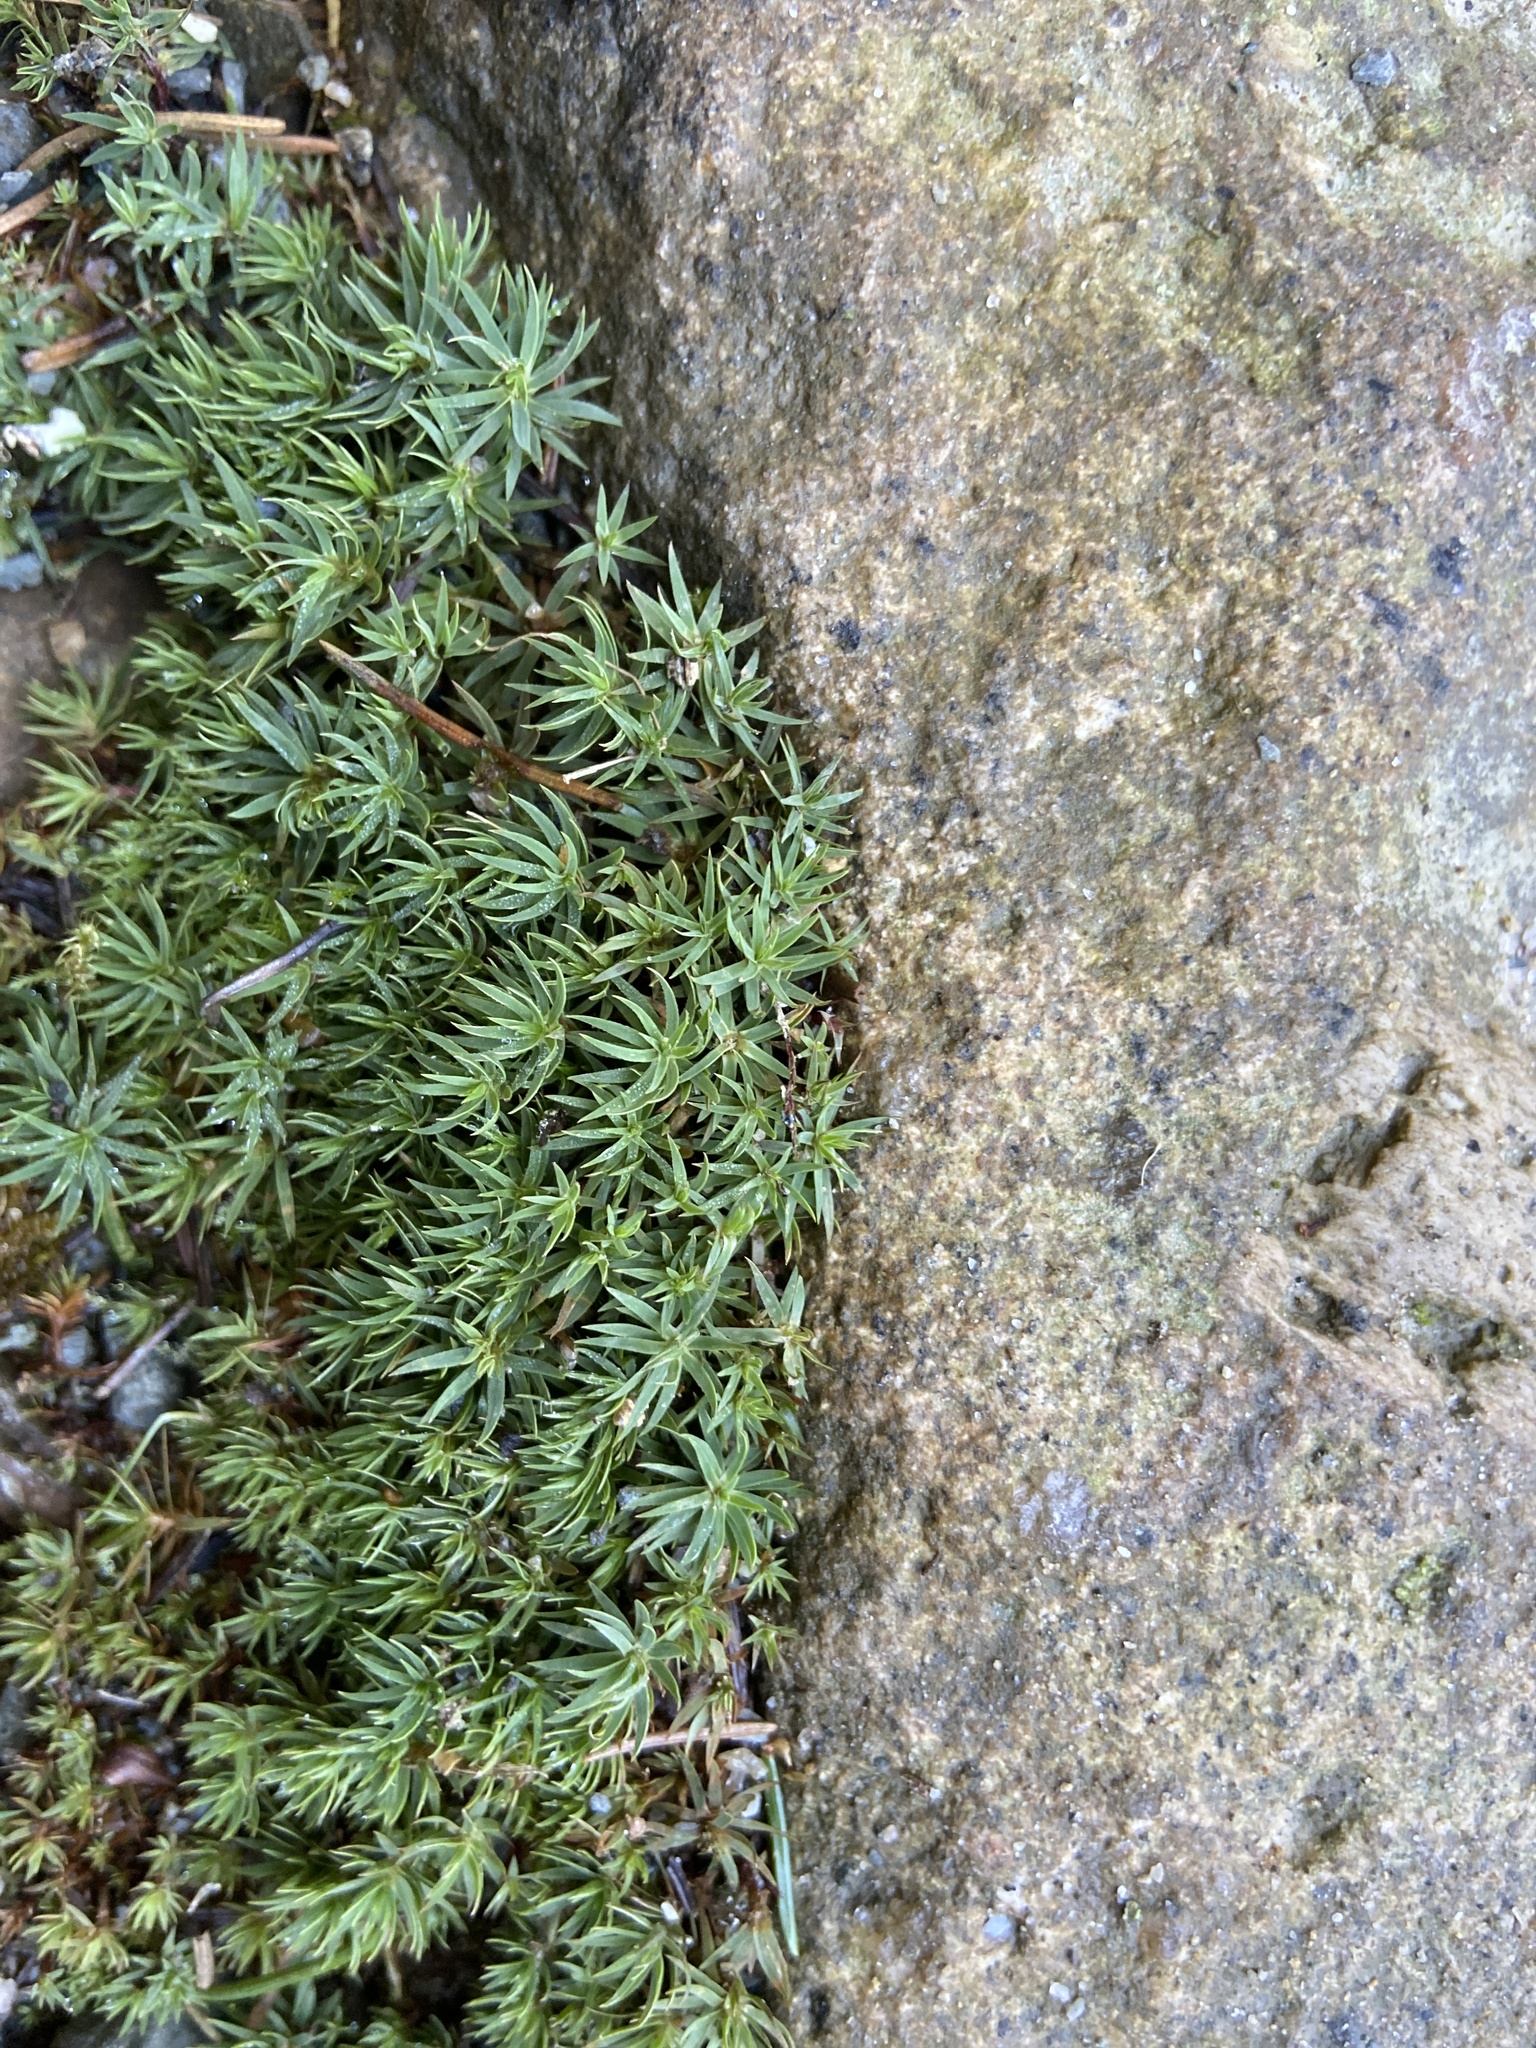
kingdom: Plantae
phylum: Bryophyta
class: Polytrichopsida
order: Polytrichales
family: Polytrichaceae
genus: Pogonatum
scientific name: Pogonatum urnigerum
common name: Urn hair moss
